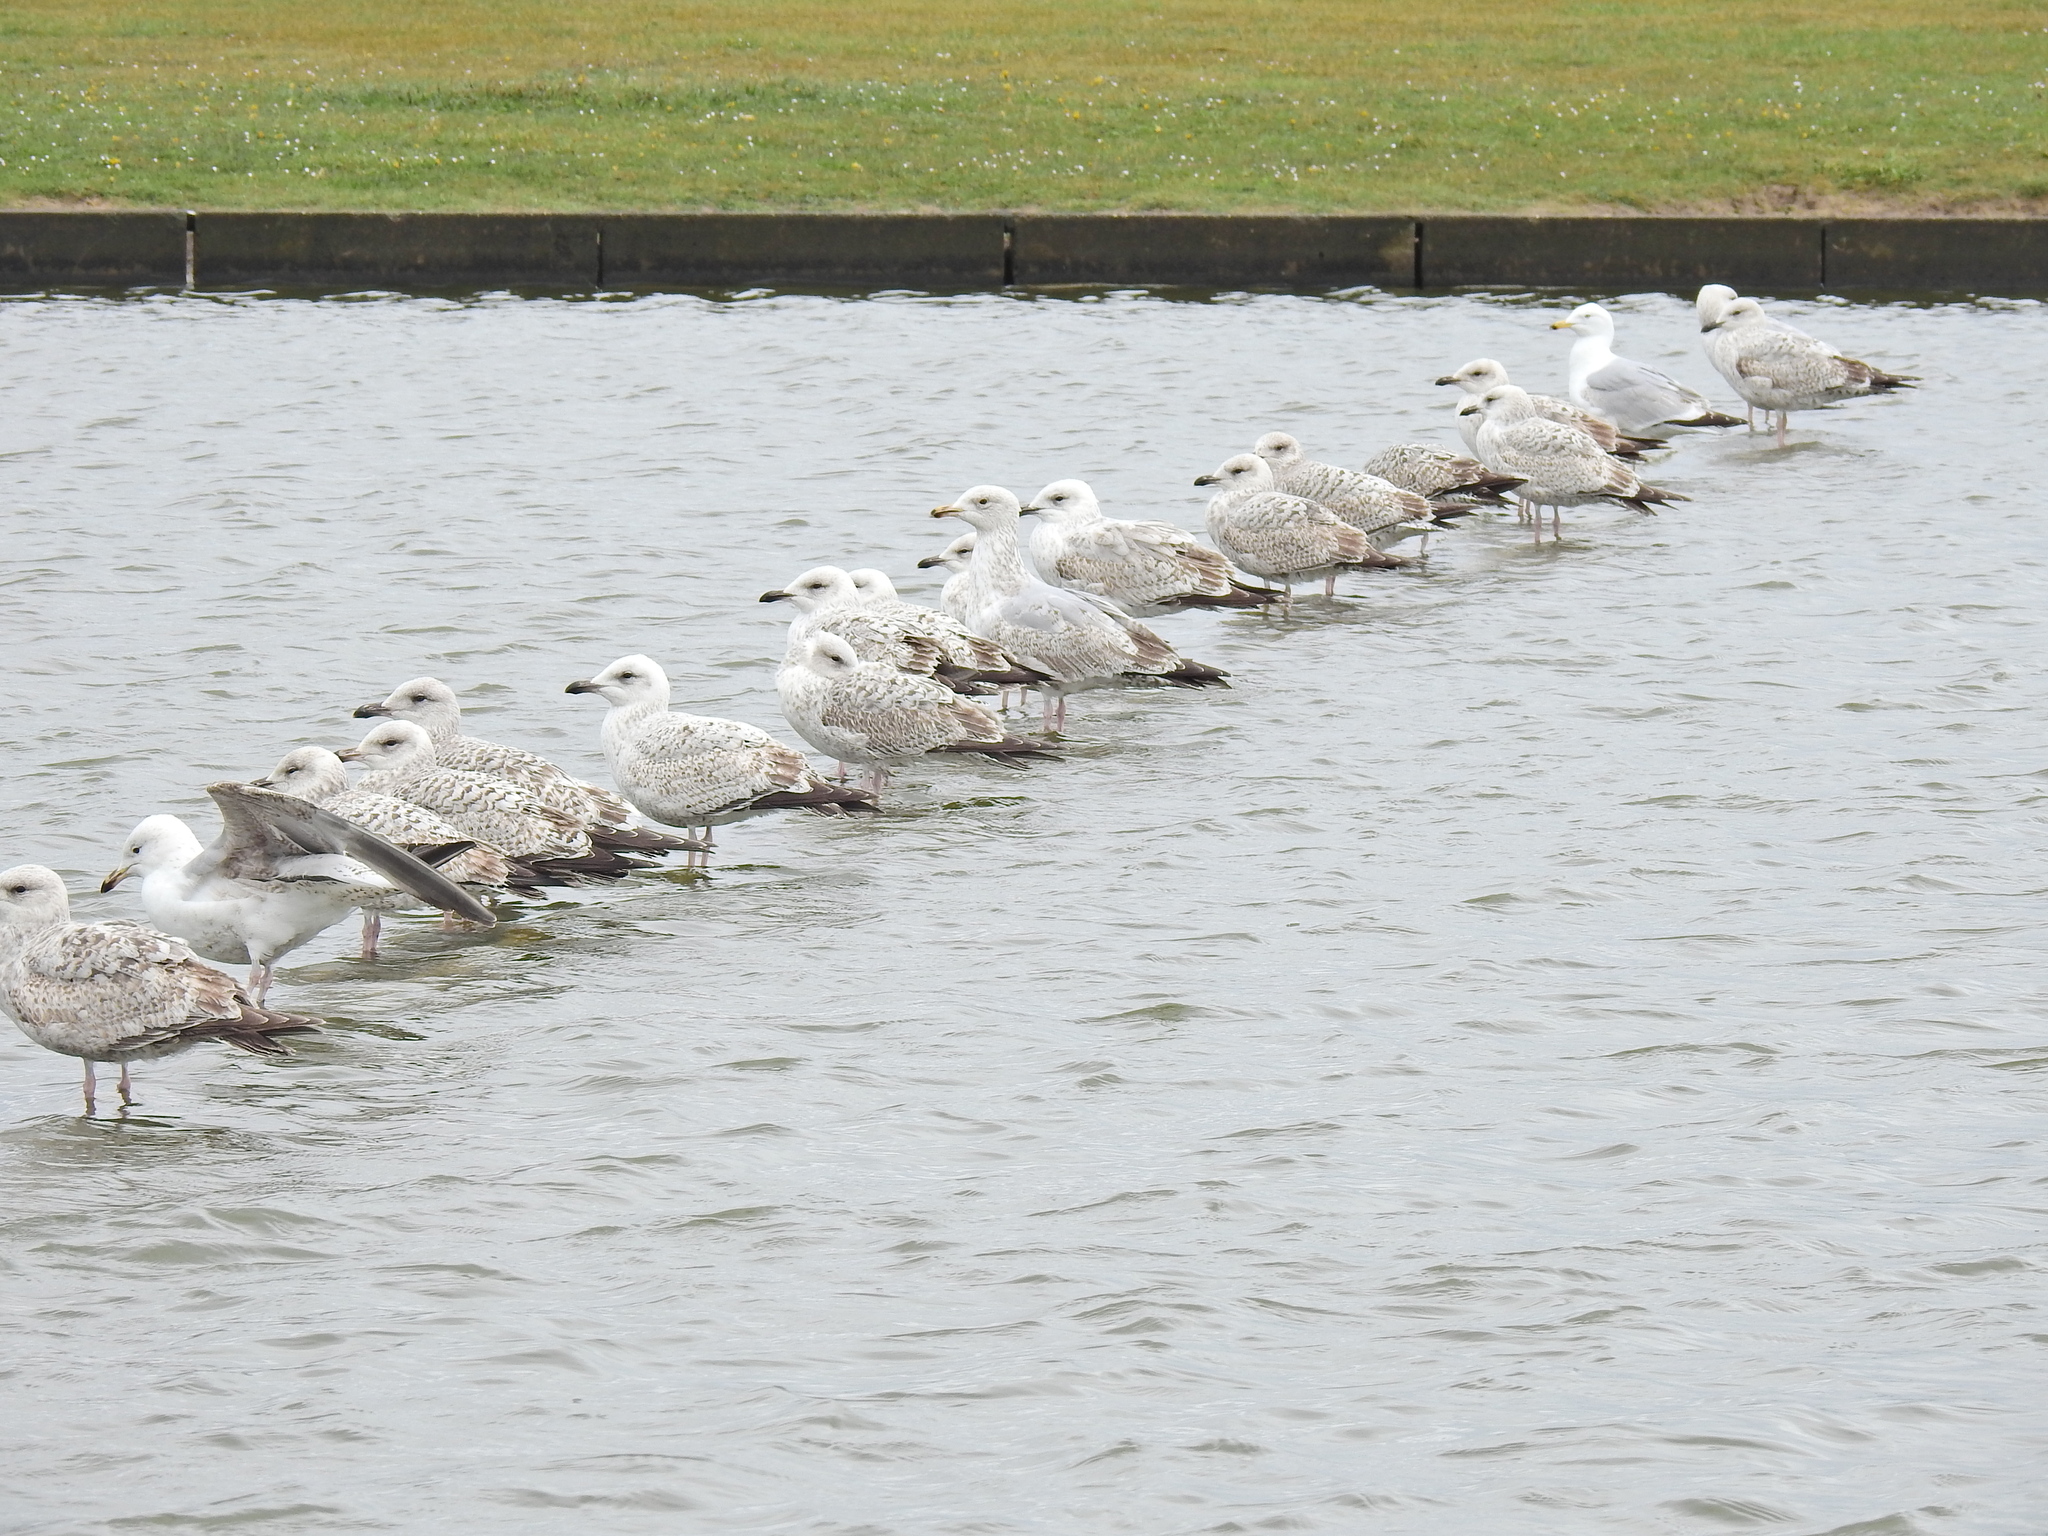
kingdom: Animalia
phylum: Chordata
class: Aves
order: Charadriiformes
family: Laridae
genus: Larus
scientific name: Larus argentatus
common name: Herring gull
